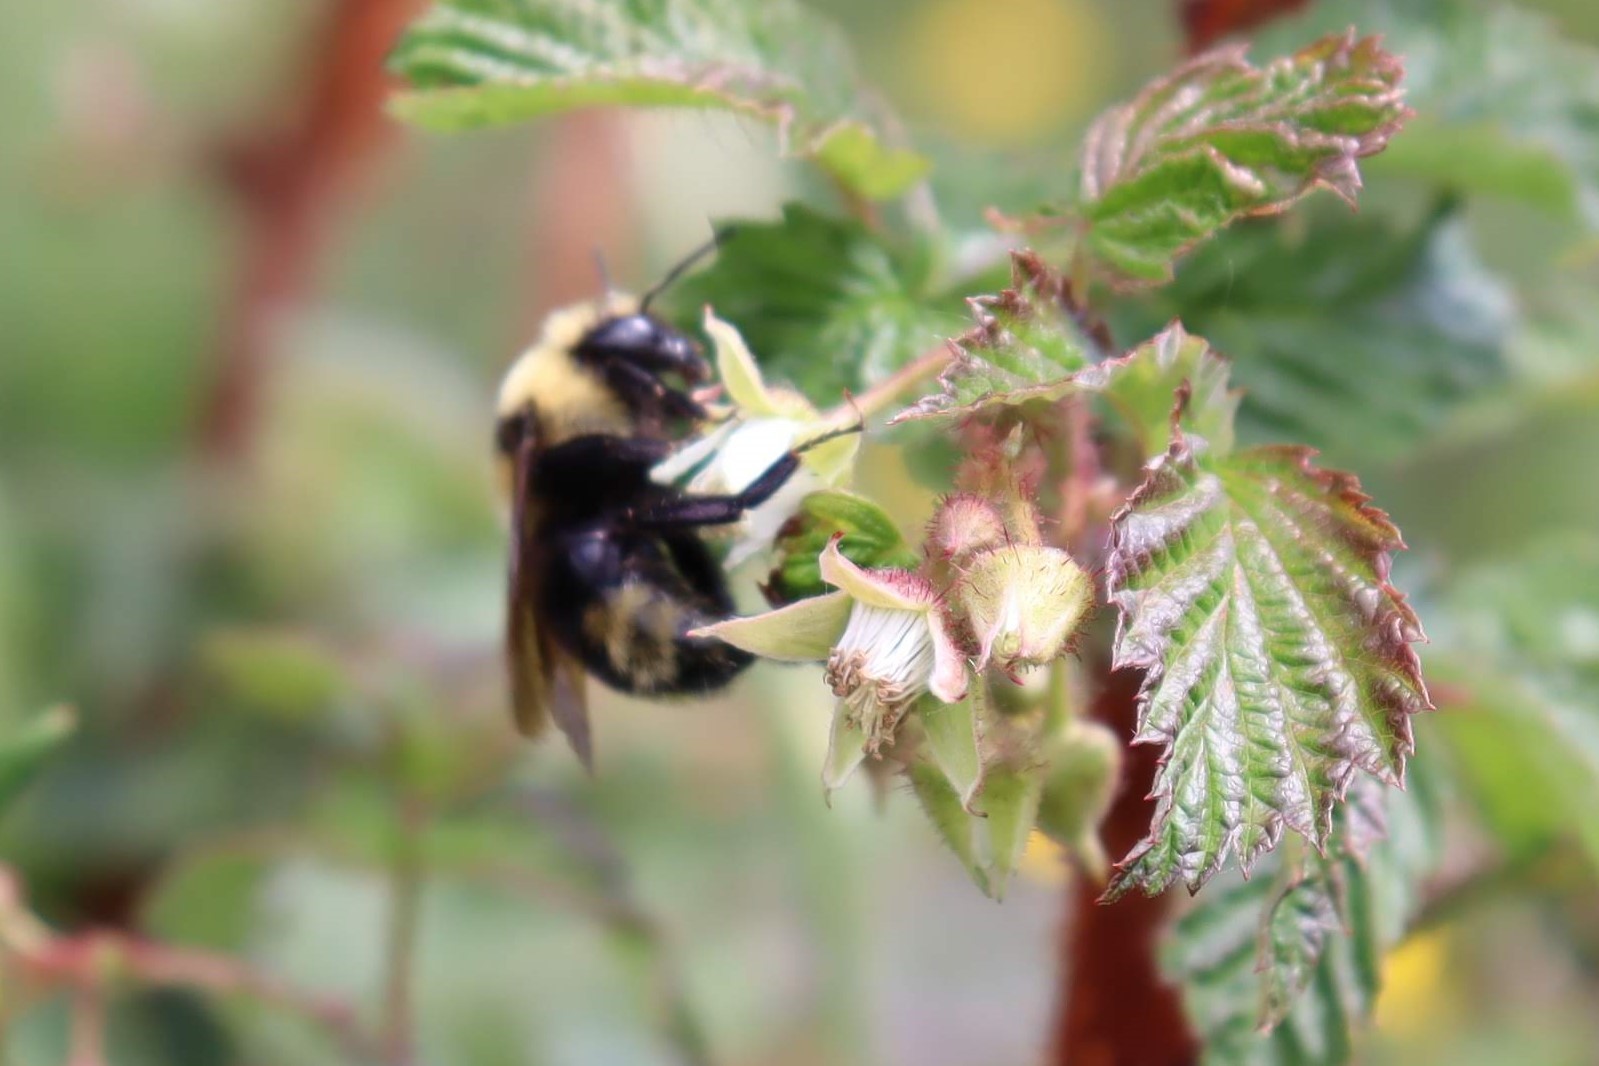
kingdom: Animalia
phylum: Arthropoda
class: Insecta
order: Hymenoptera
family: Apidae
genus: Bombus
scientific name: Bombus insularis
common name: Indiscriminate cuckoo bumble bee
